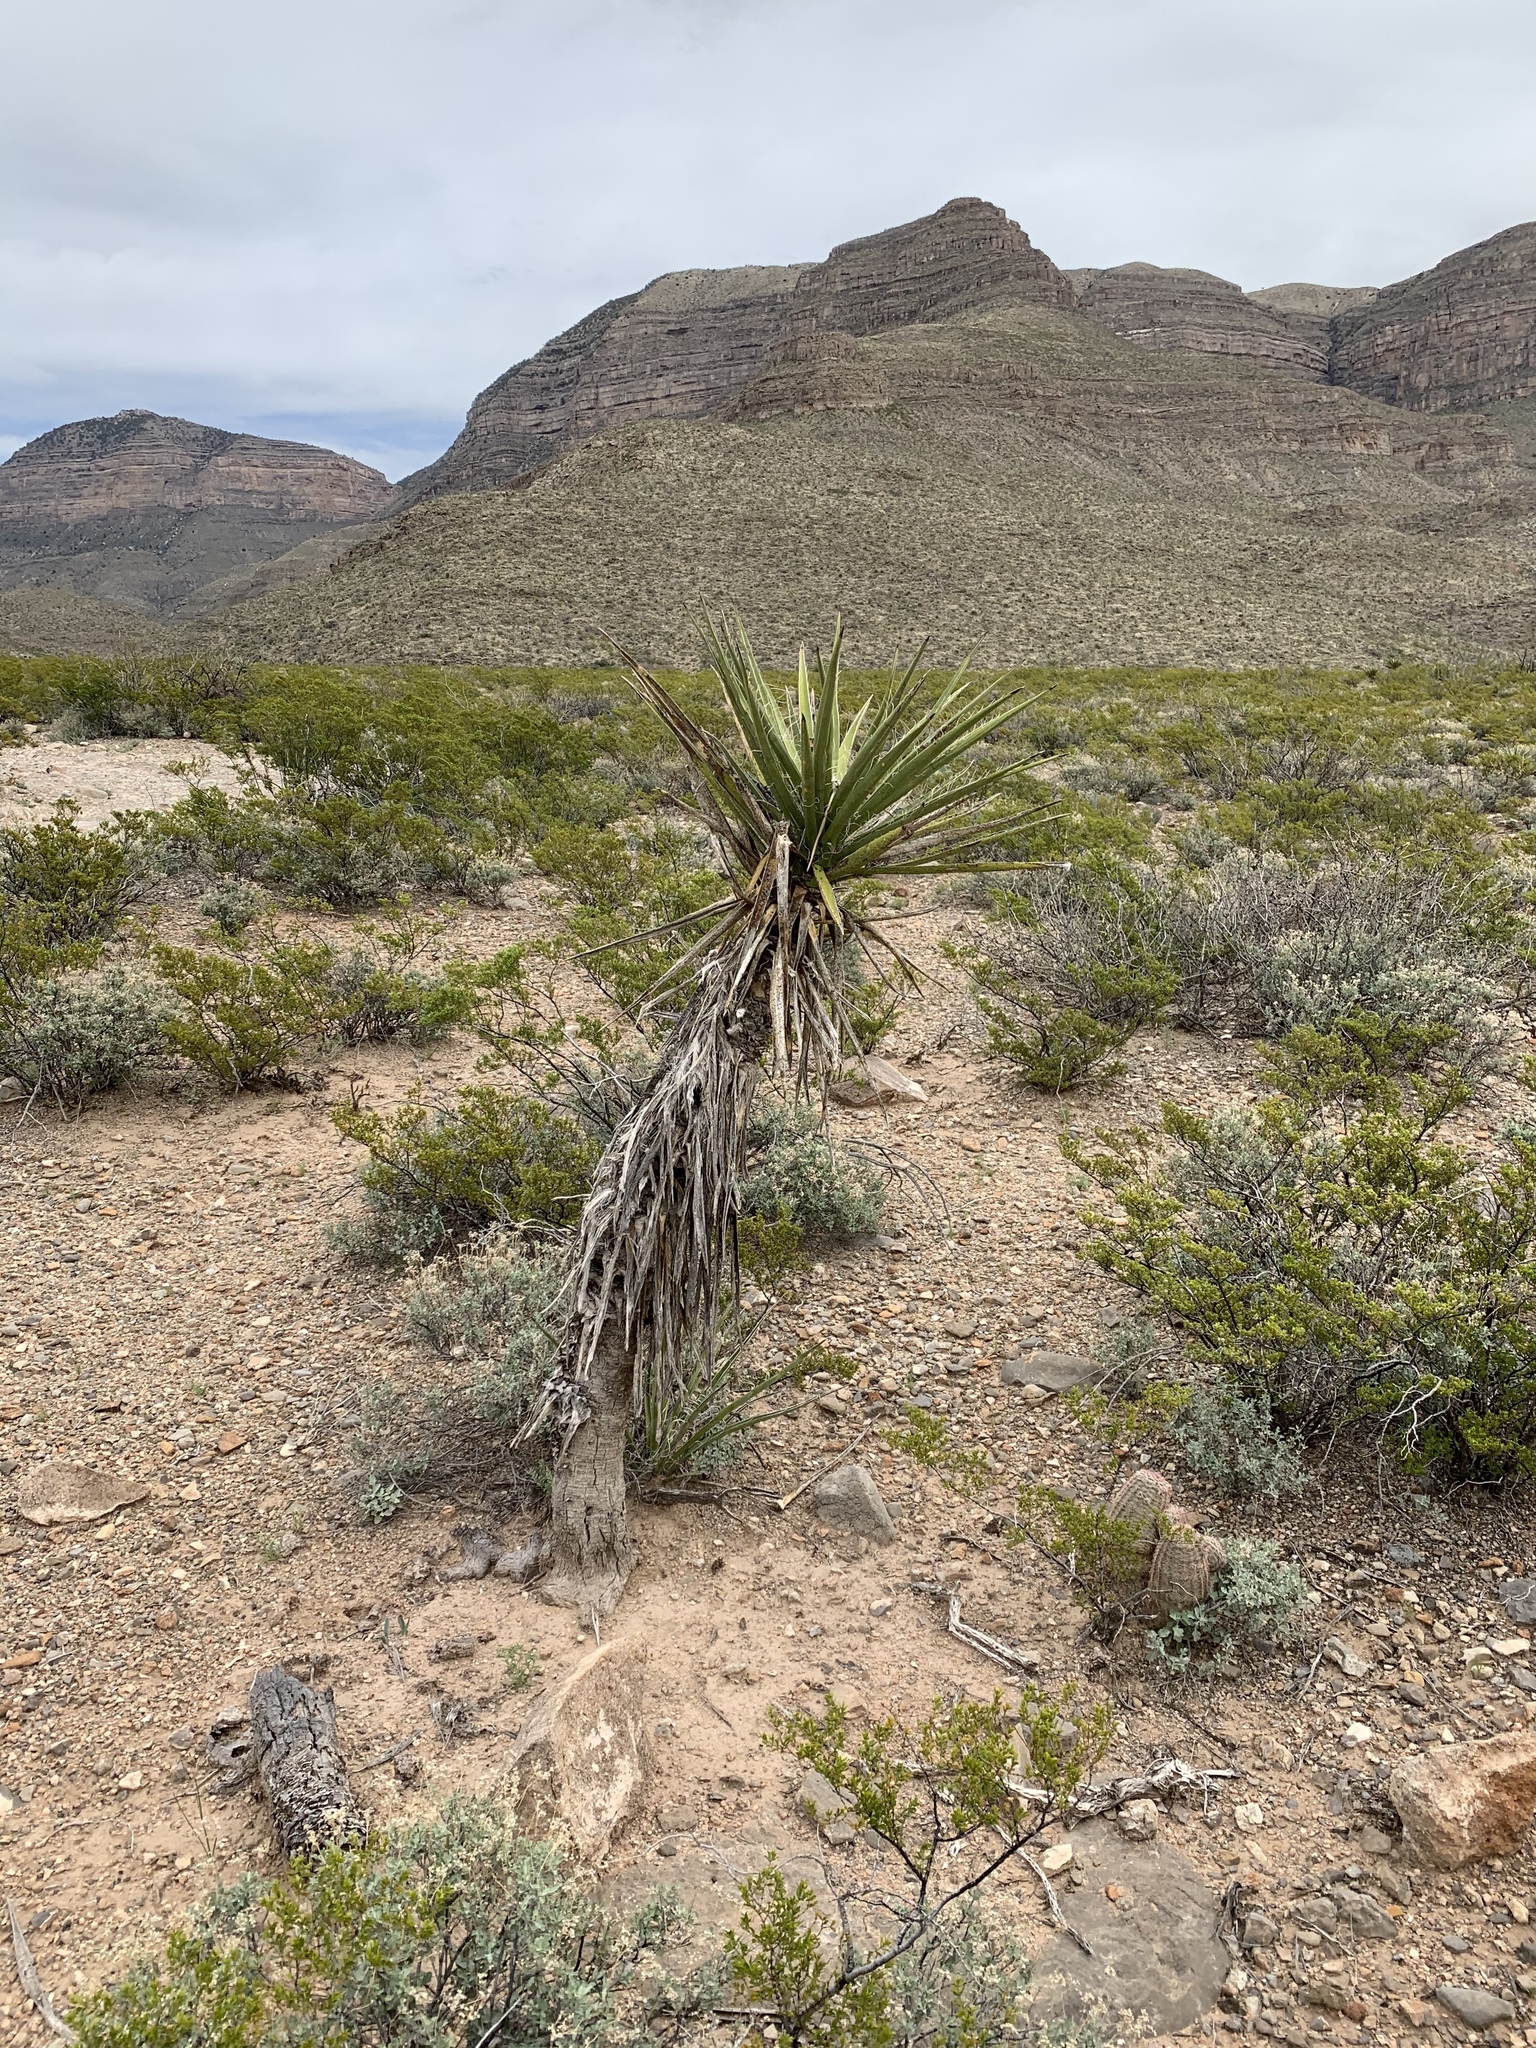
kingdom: Plantae
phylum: Tracheophyta
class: Liliopsida
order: Asparagales
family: Asparagaceae
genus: Yucca
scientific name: Yucca treculiana
